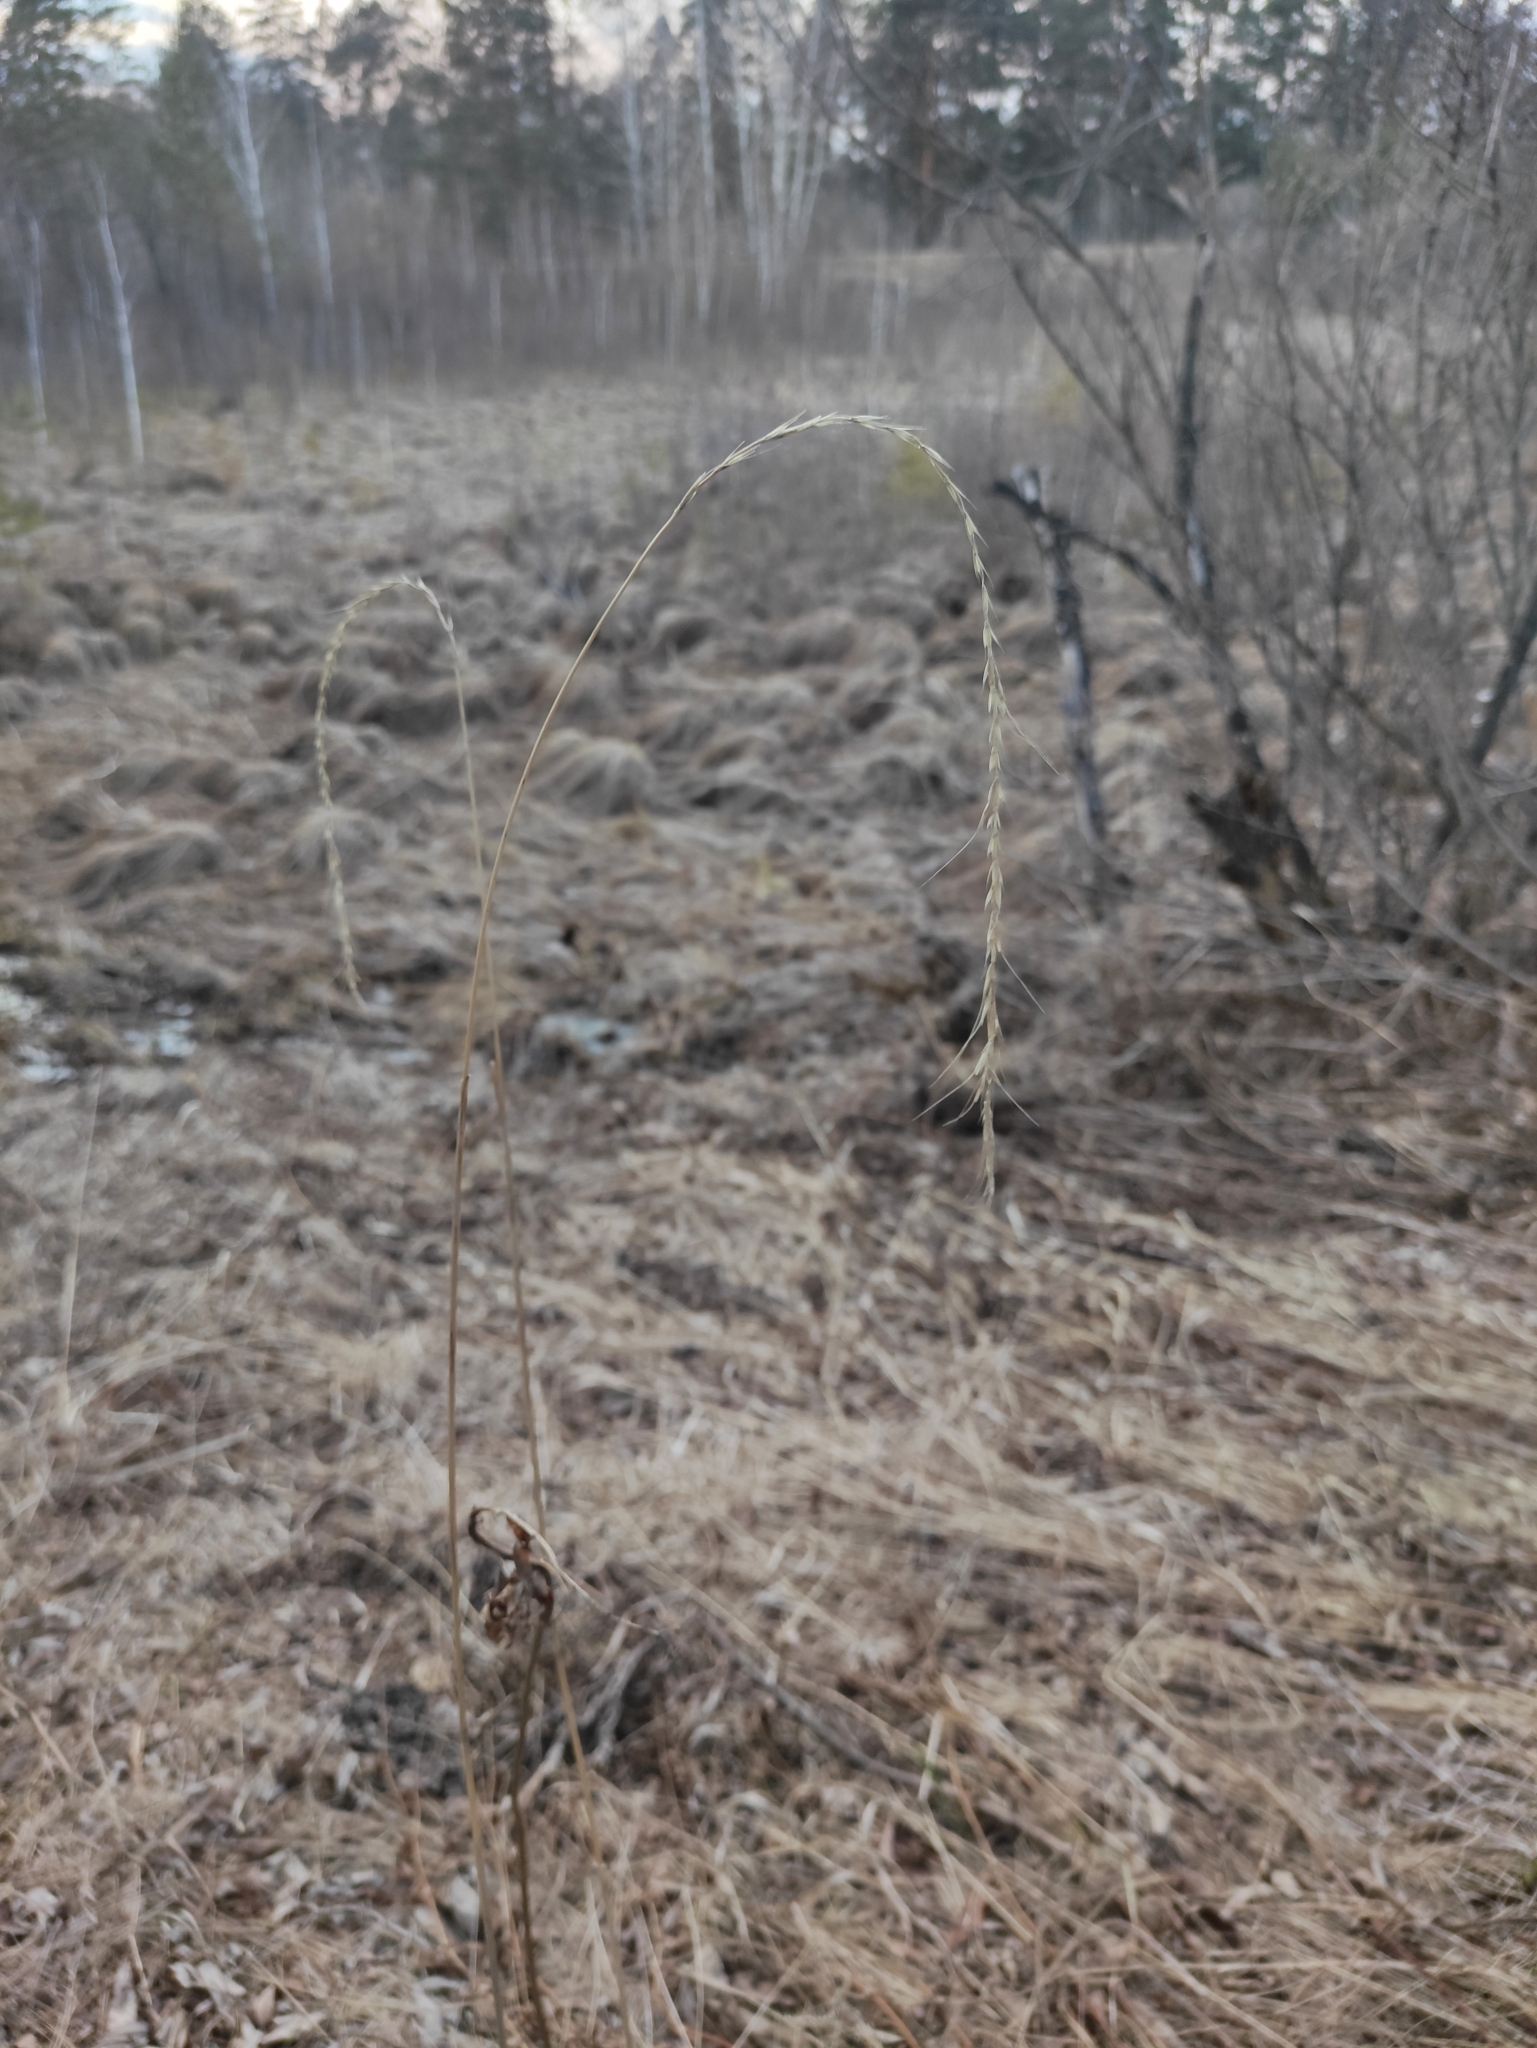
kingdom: Plantae
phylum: Tracheophyta
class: Liliopsida
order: Poales
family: Poaceae
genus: Elymus
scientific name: Elymus sibiricus
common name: Siberian wildrye
